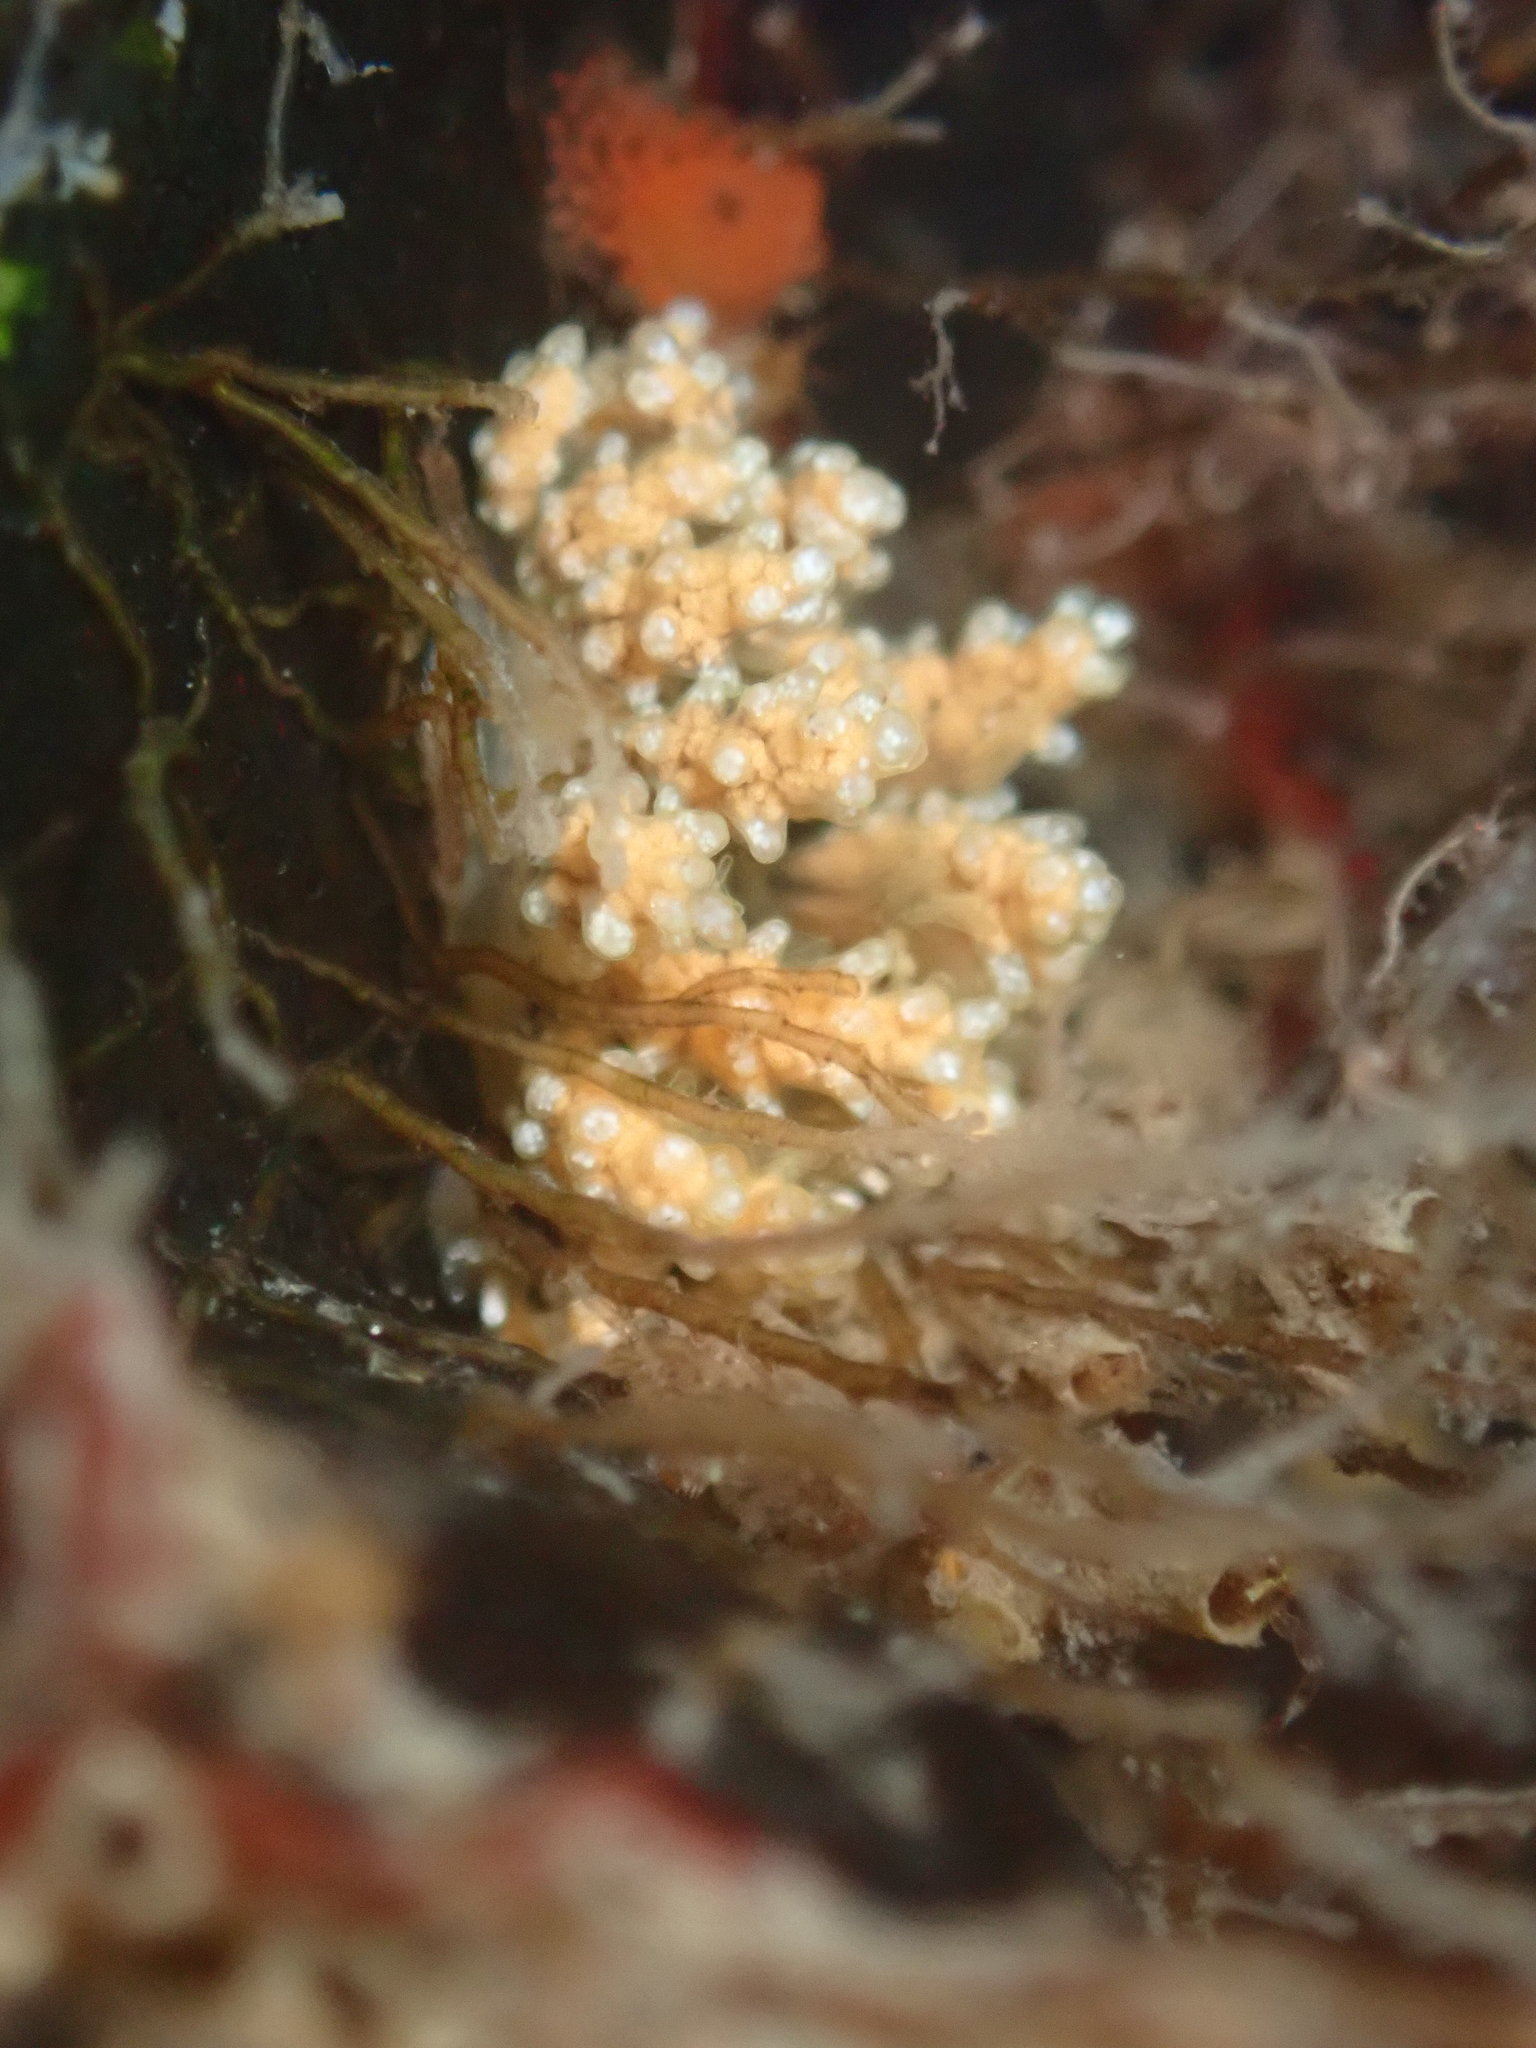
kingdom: Animalia
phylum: Mollusca
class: Gastropoda
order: Nudibranchia
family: Dotidae
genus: Doto
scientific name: Doto kya
